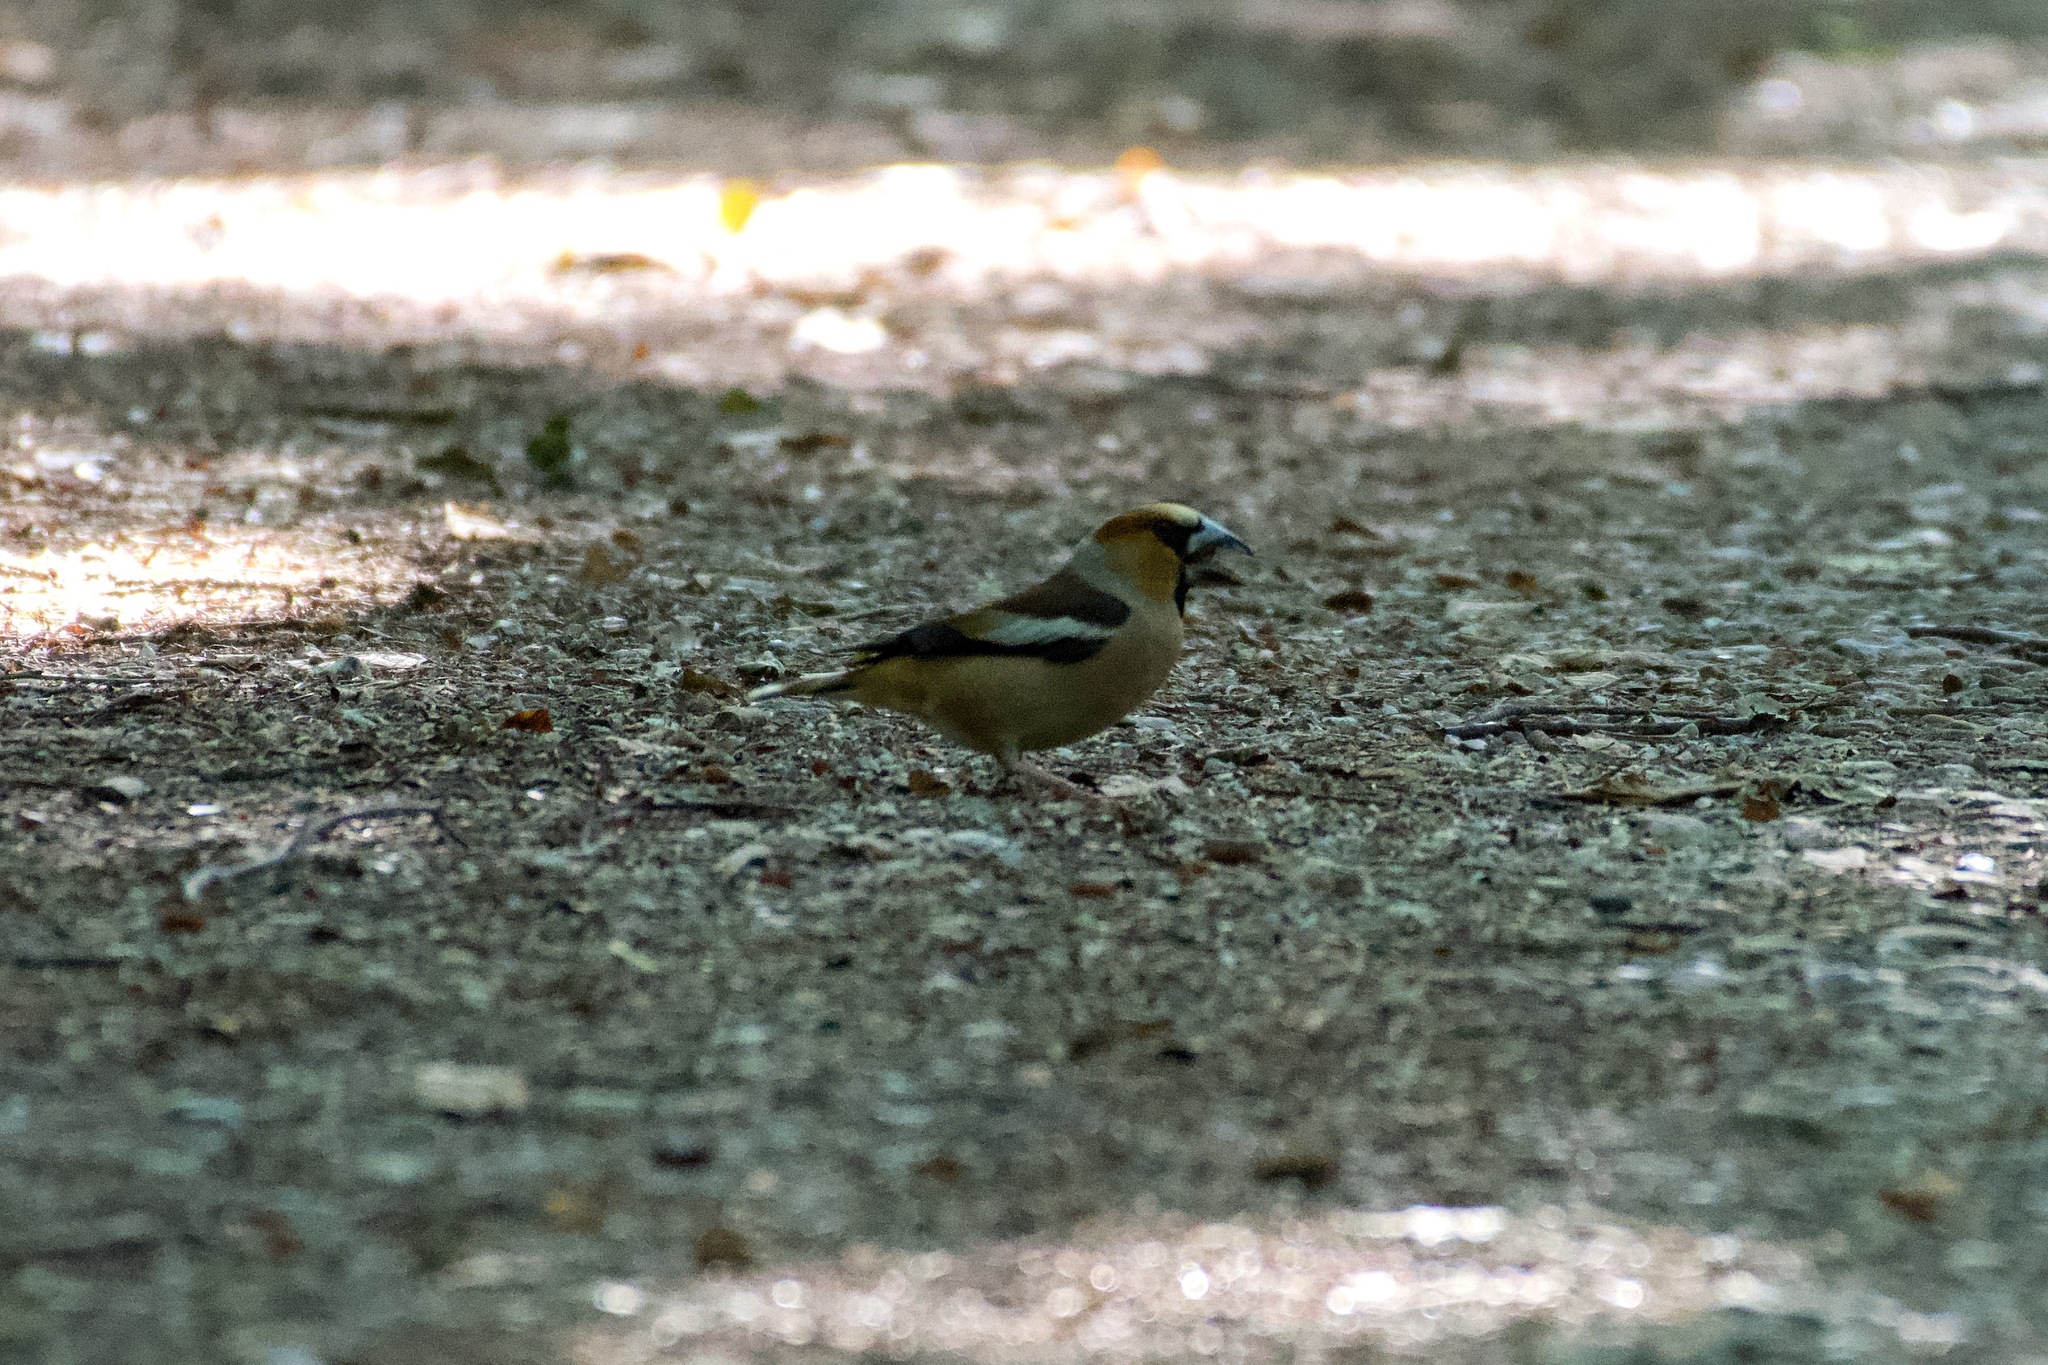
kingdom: Animalia
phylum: Chordata
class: Aves
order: Passeriformes
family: Fringillidae
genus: Coccothraustes
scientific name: Coccothraustes coccothraustes
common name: Hawfinch
